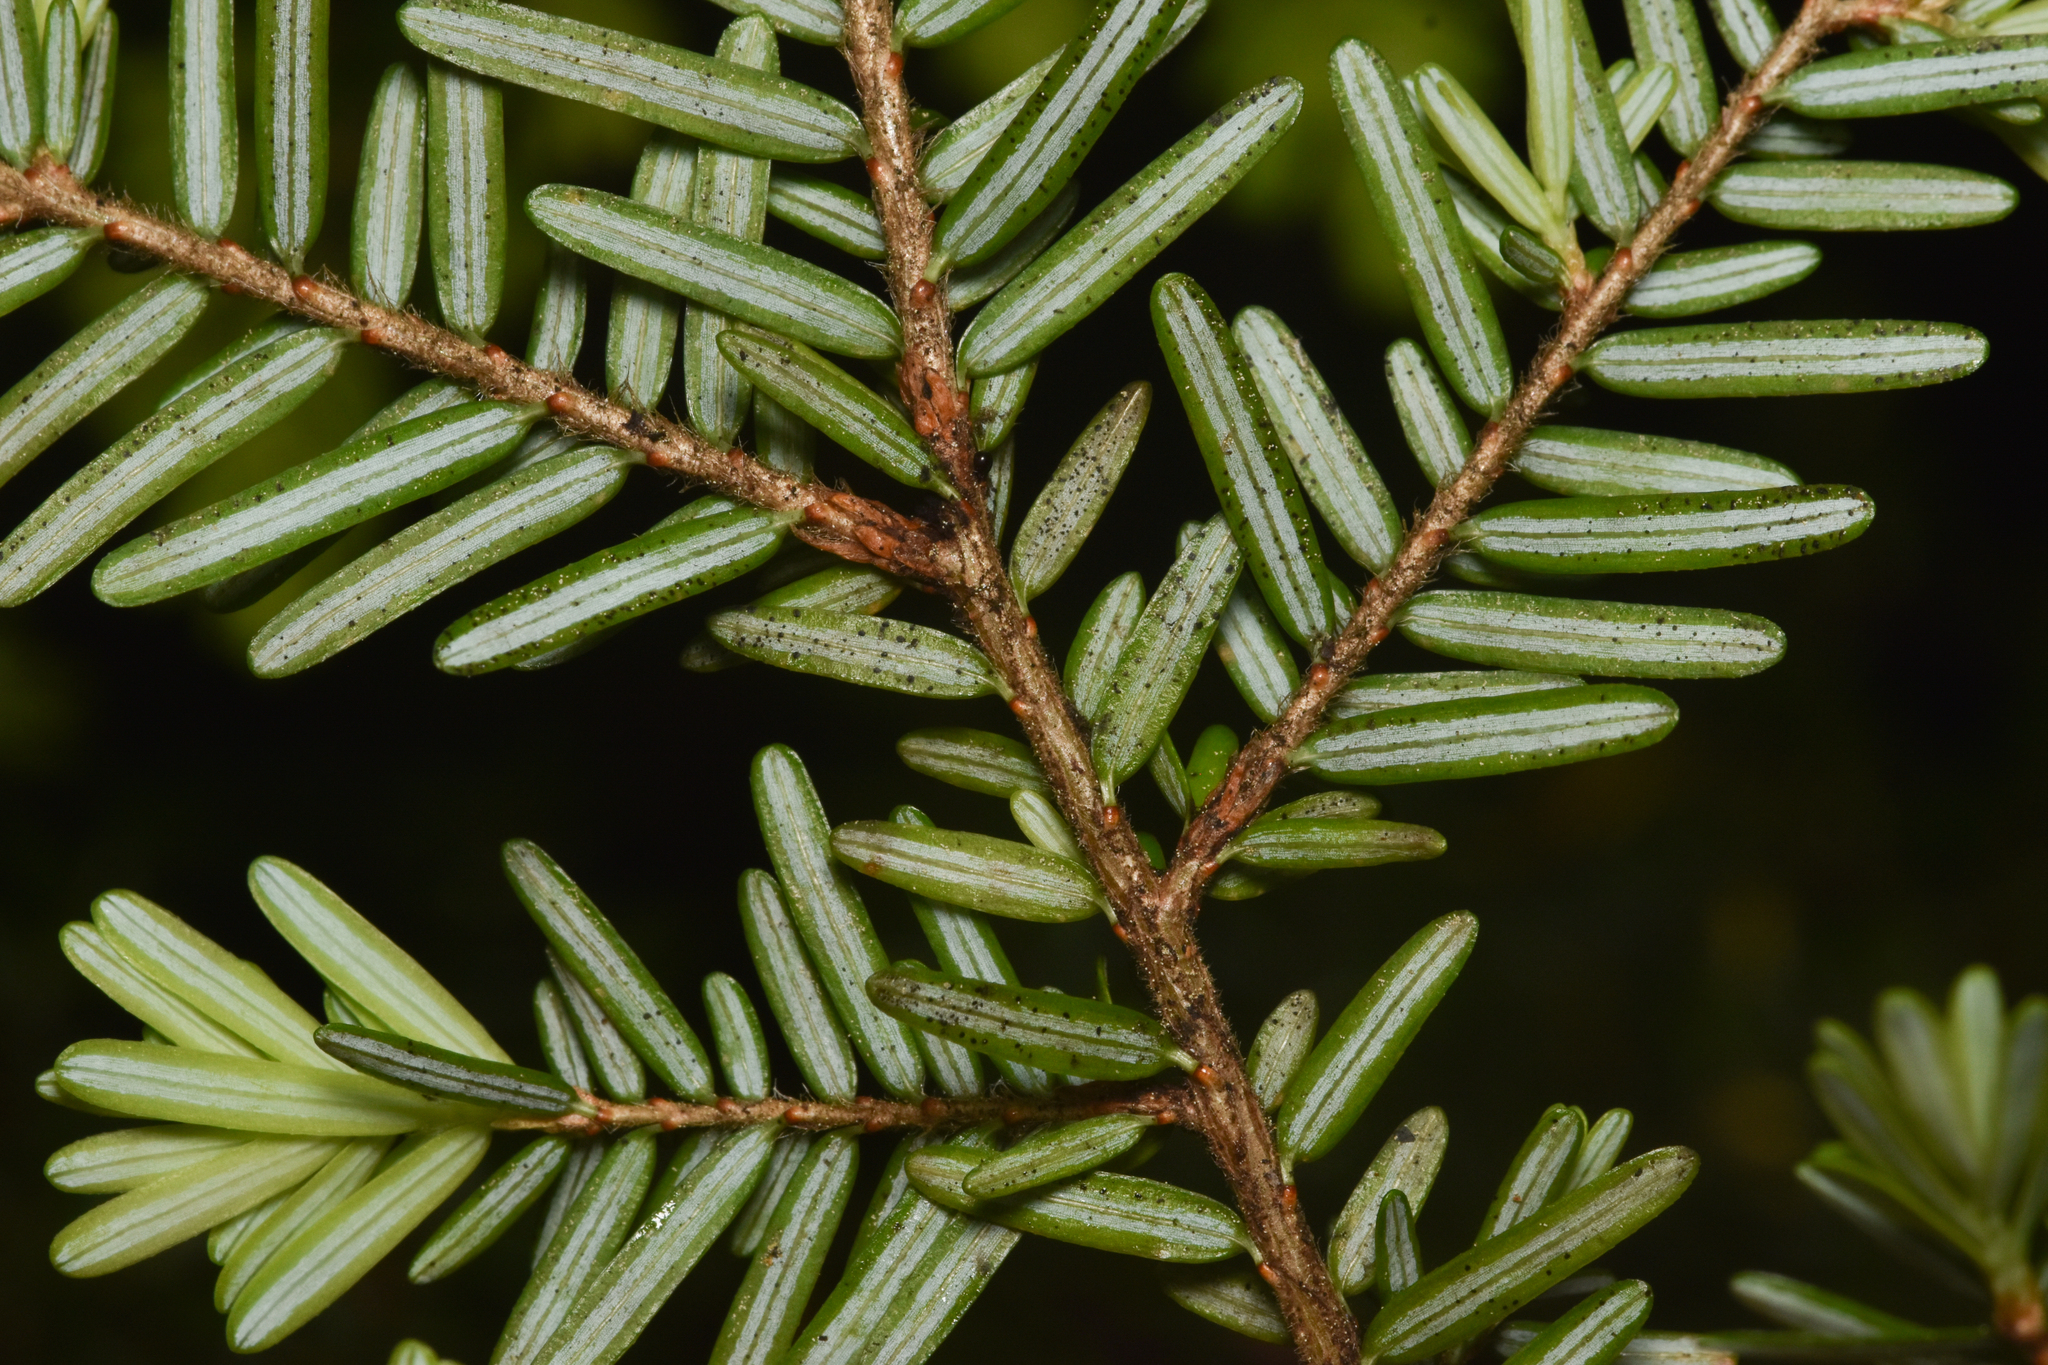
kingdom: Plantae
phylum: Tracheophyta
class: Pinopsida
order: Pinales
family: Pinaceae
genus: Tsuga
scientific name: Tsuga heterophylla
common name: Western hemlock
